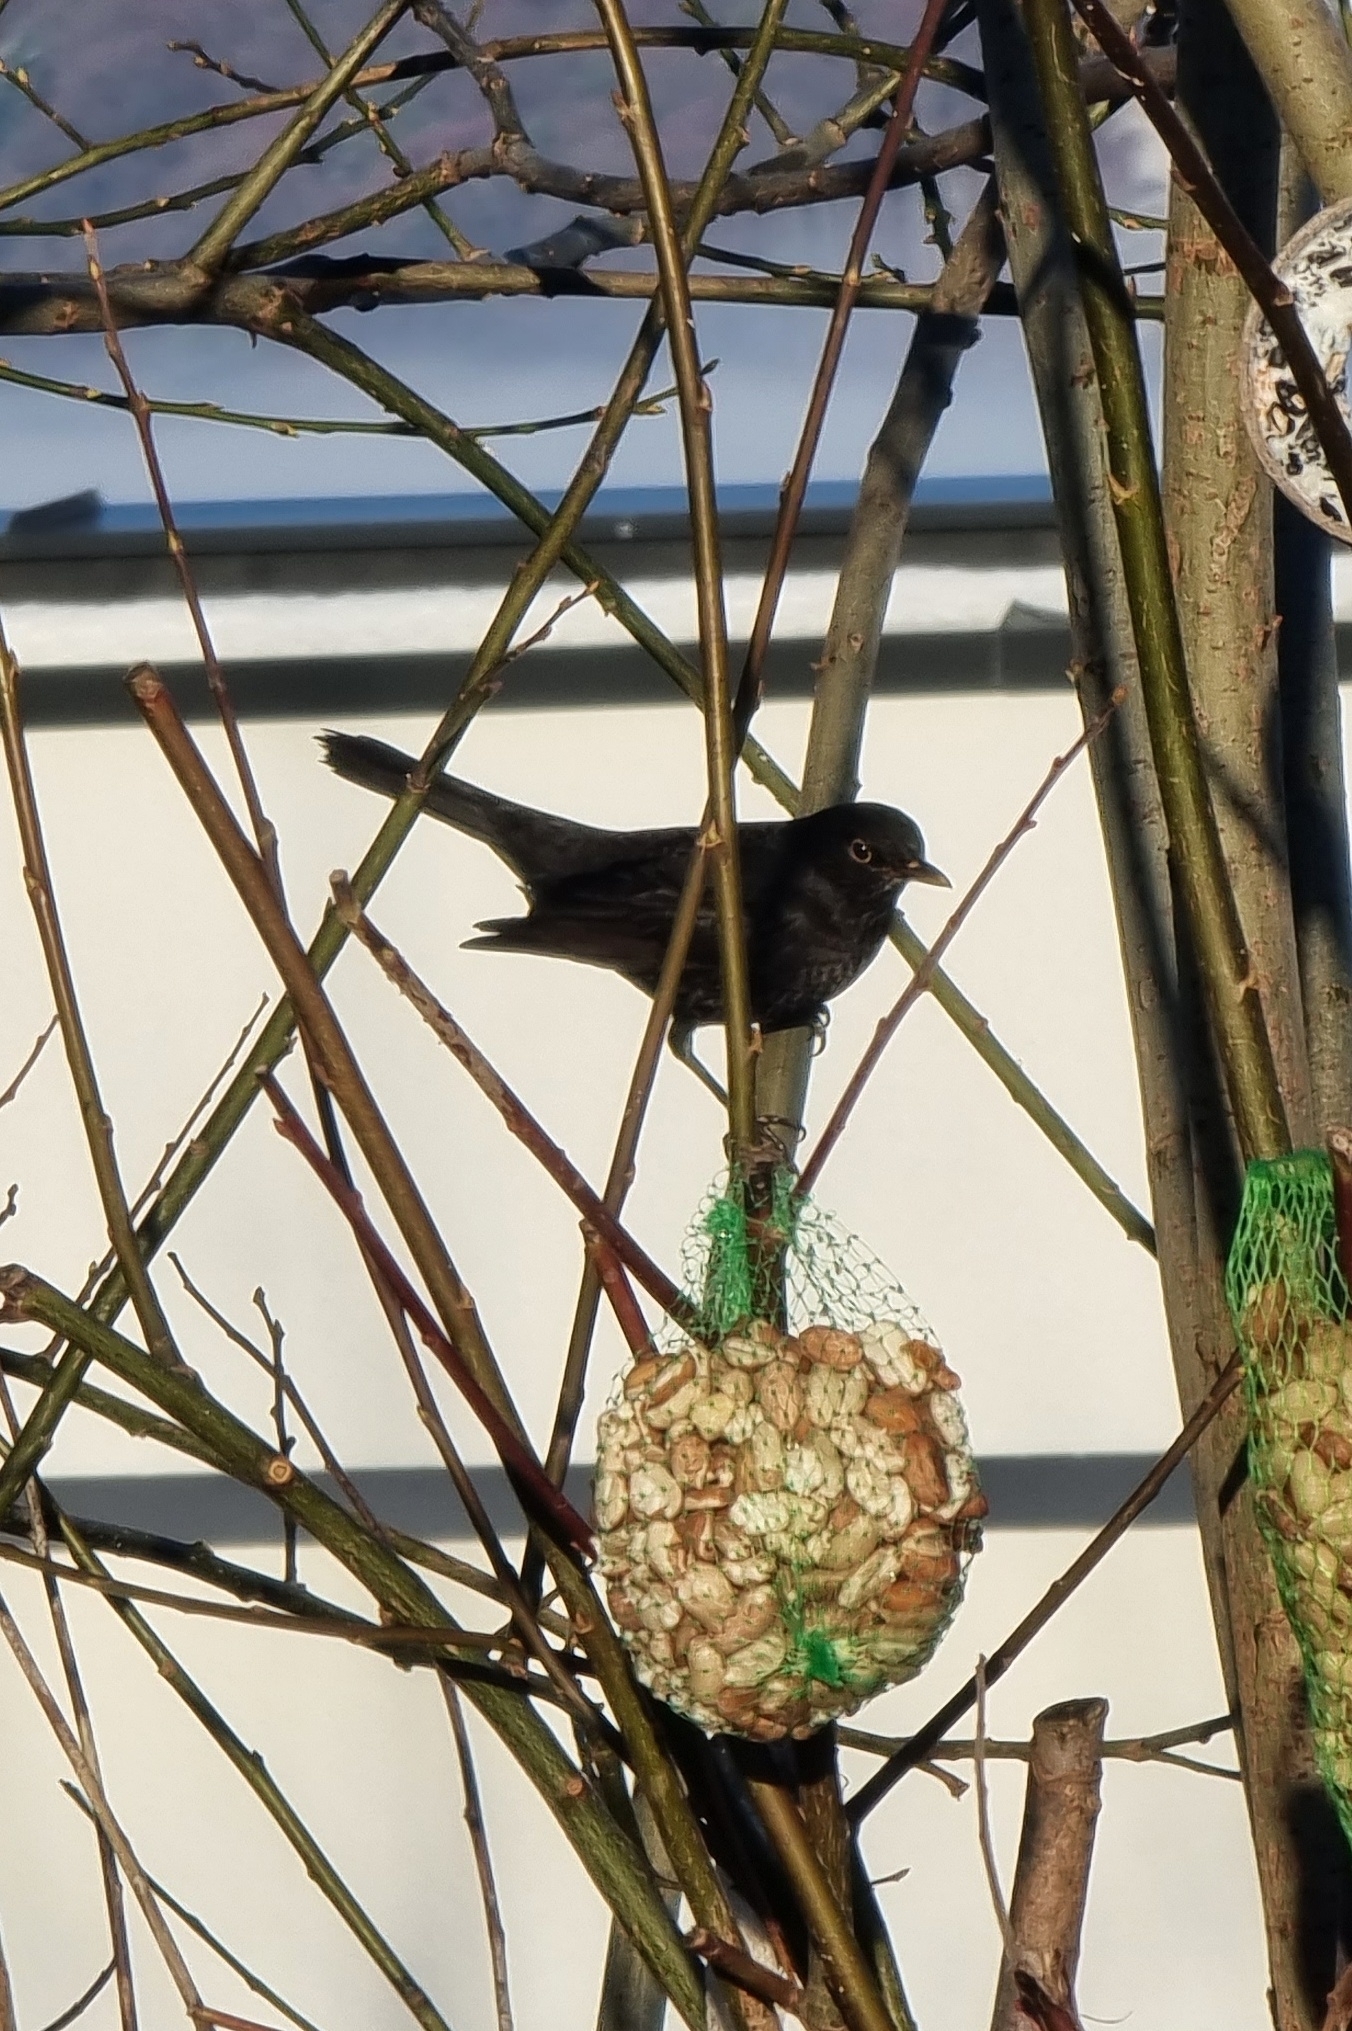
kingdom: Animalia
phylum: Chordata
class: Aves
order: Passeriformes
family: Turdidae
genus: Turdus
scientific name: Turdus merula
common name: Common blackbird
